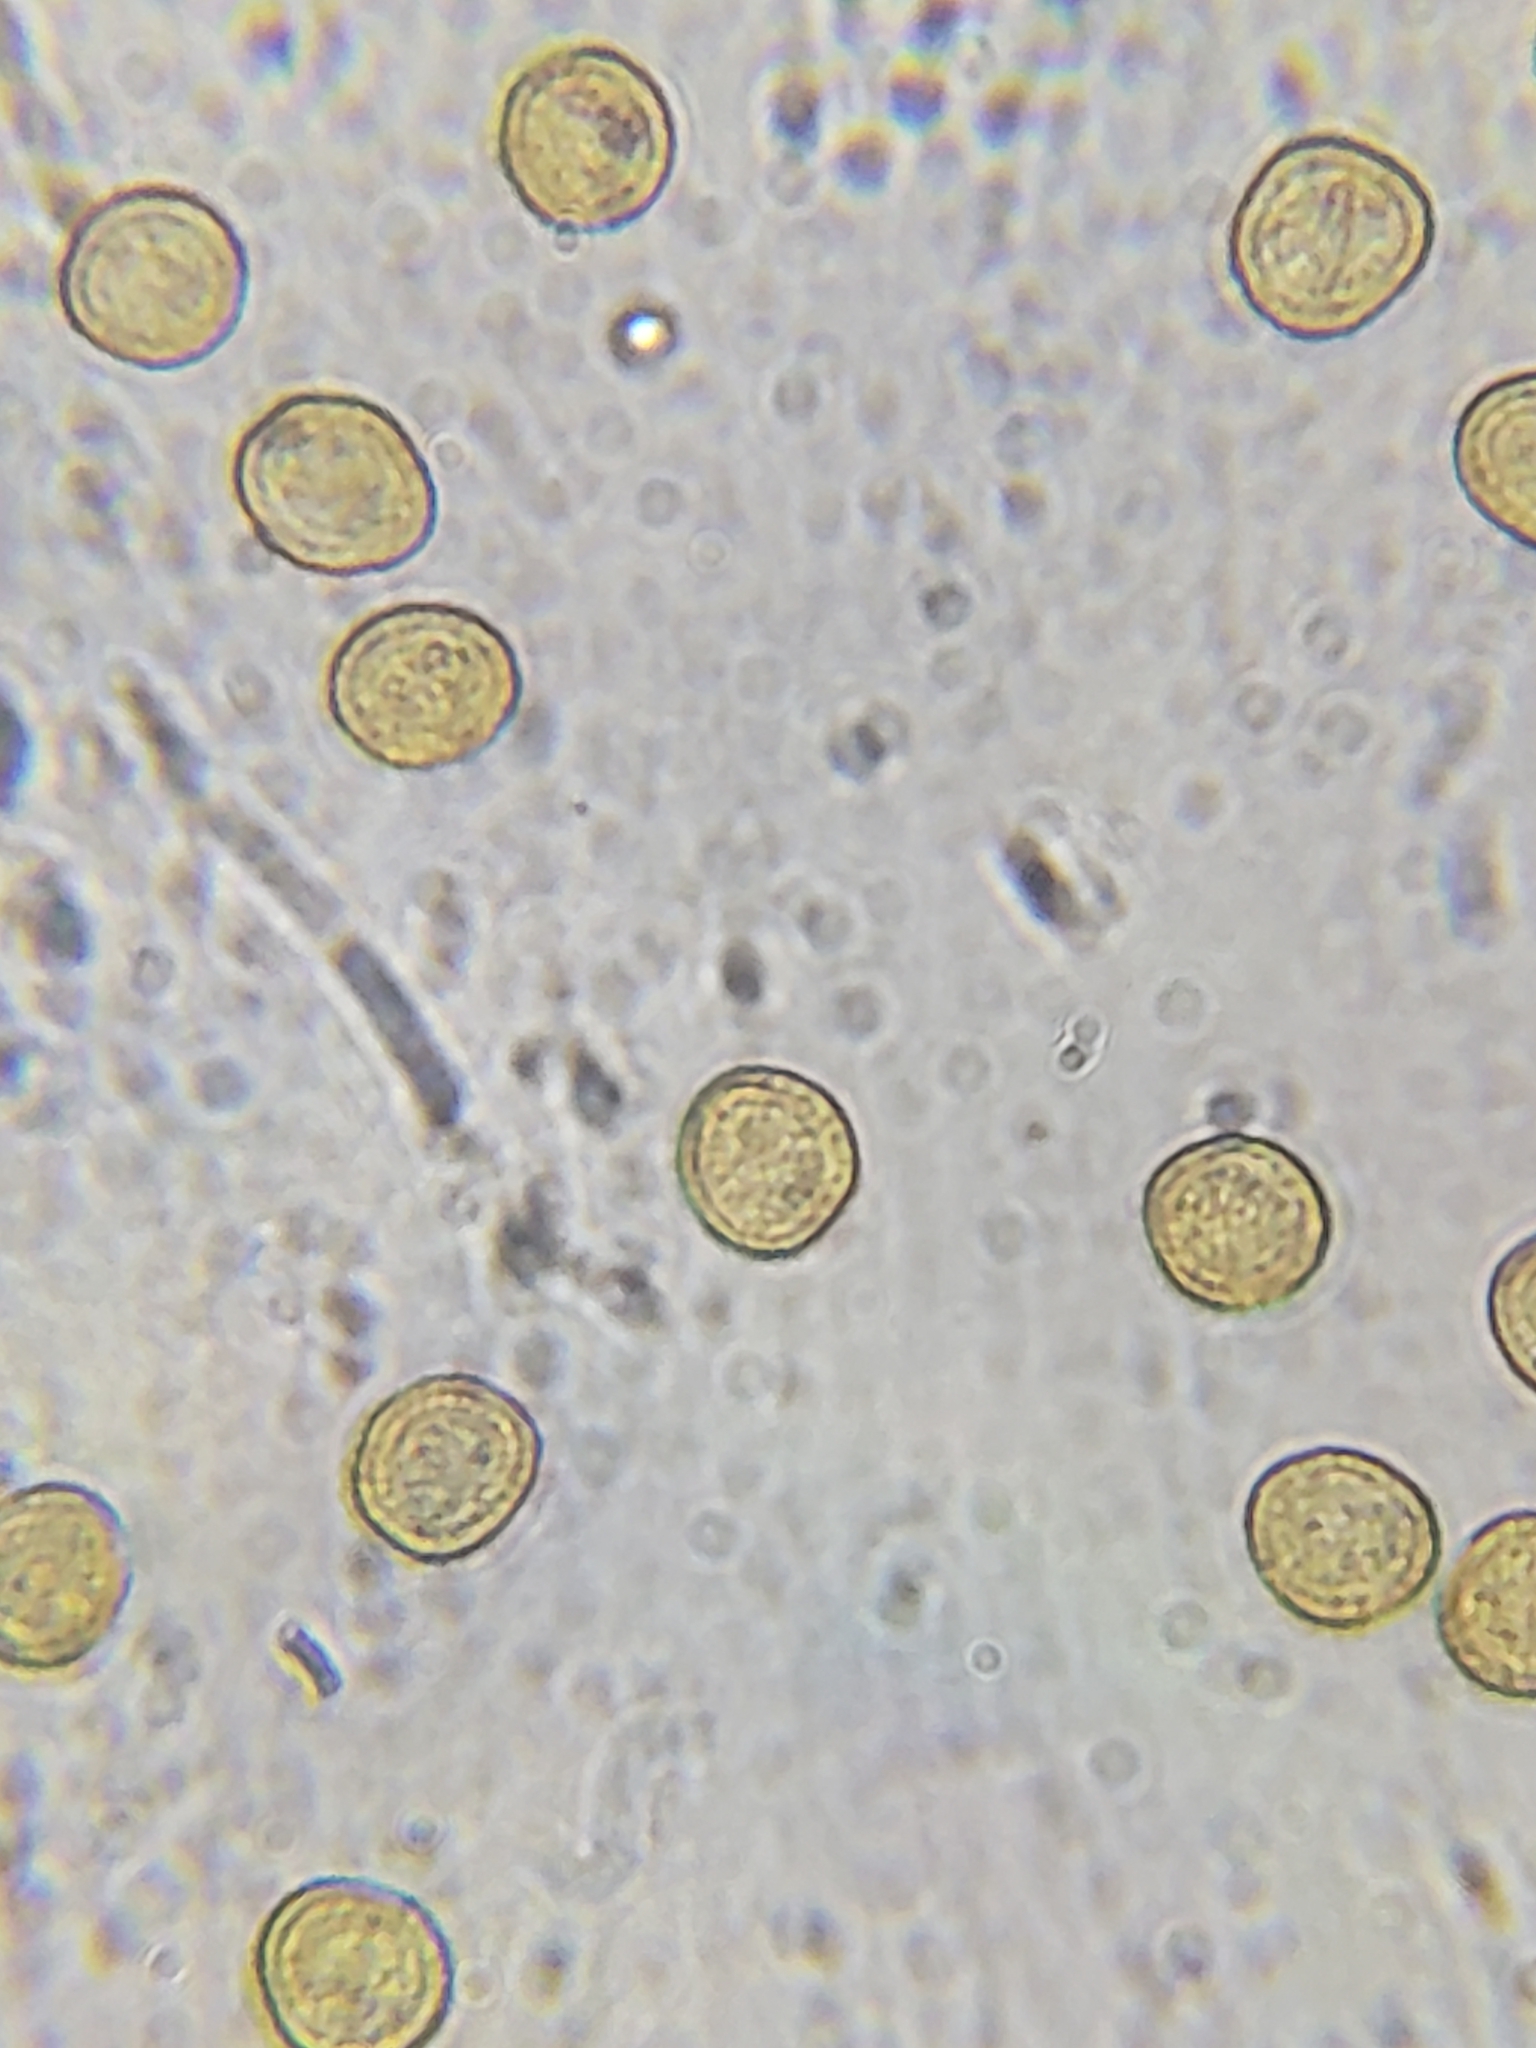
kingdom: Protozoa
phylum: Mycetozoa
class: Myxomycetes
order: Trichiales
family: Trichiaceae
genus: Perichaena
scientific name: Perichaena depressa
